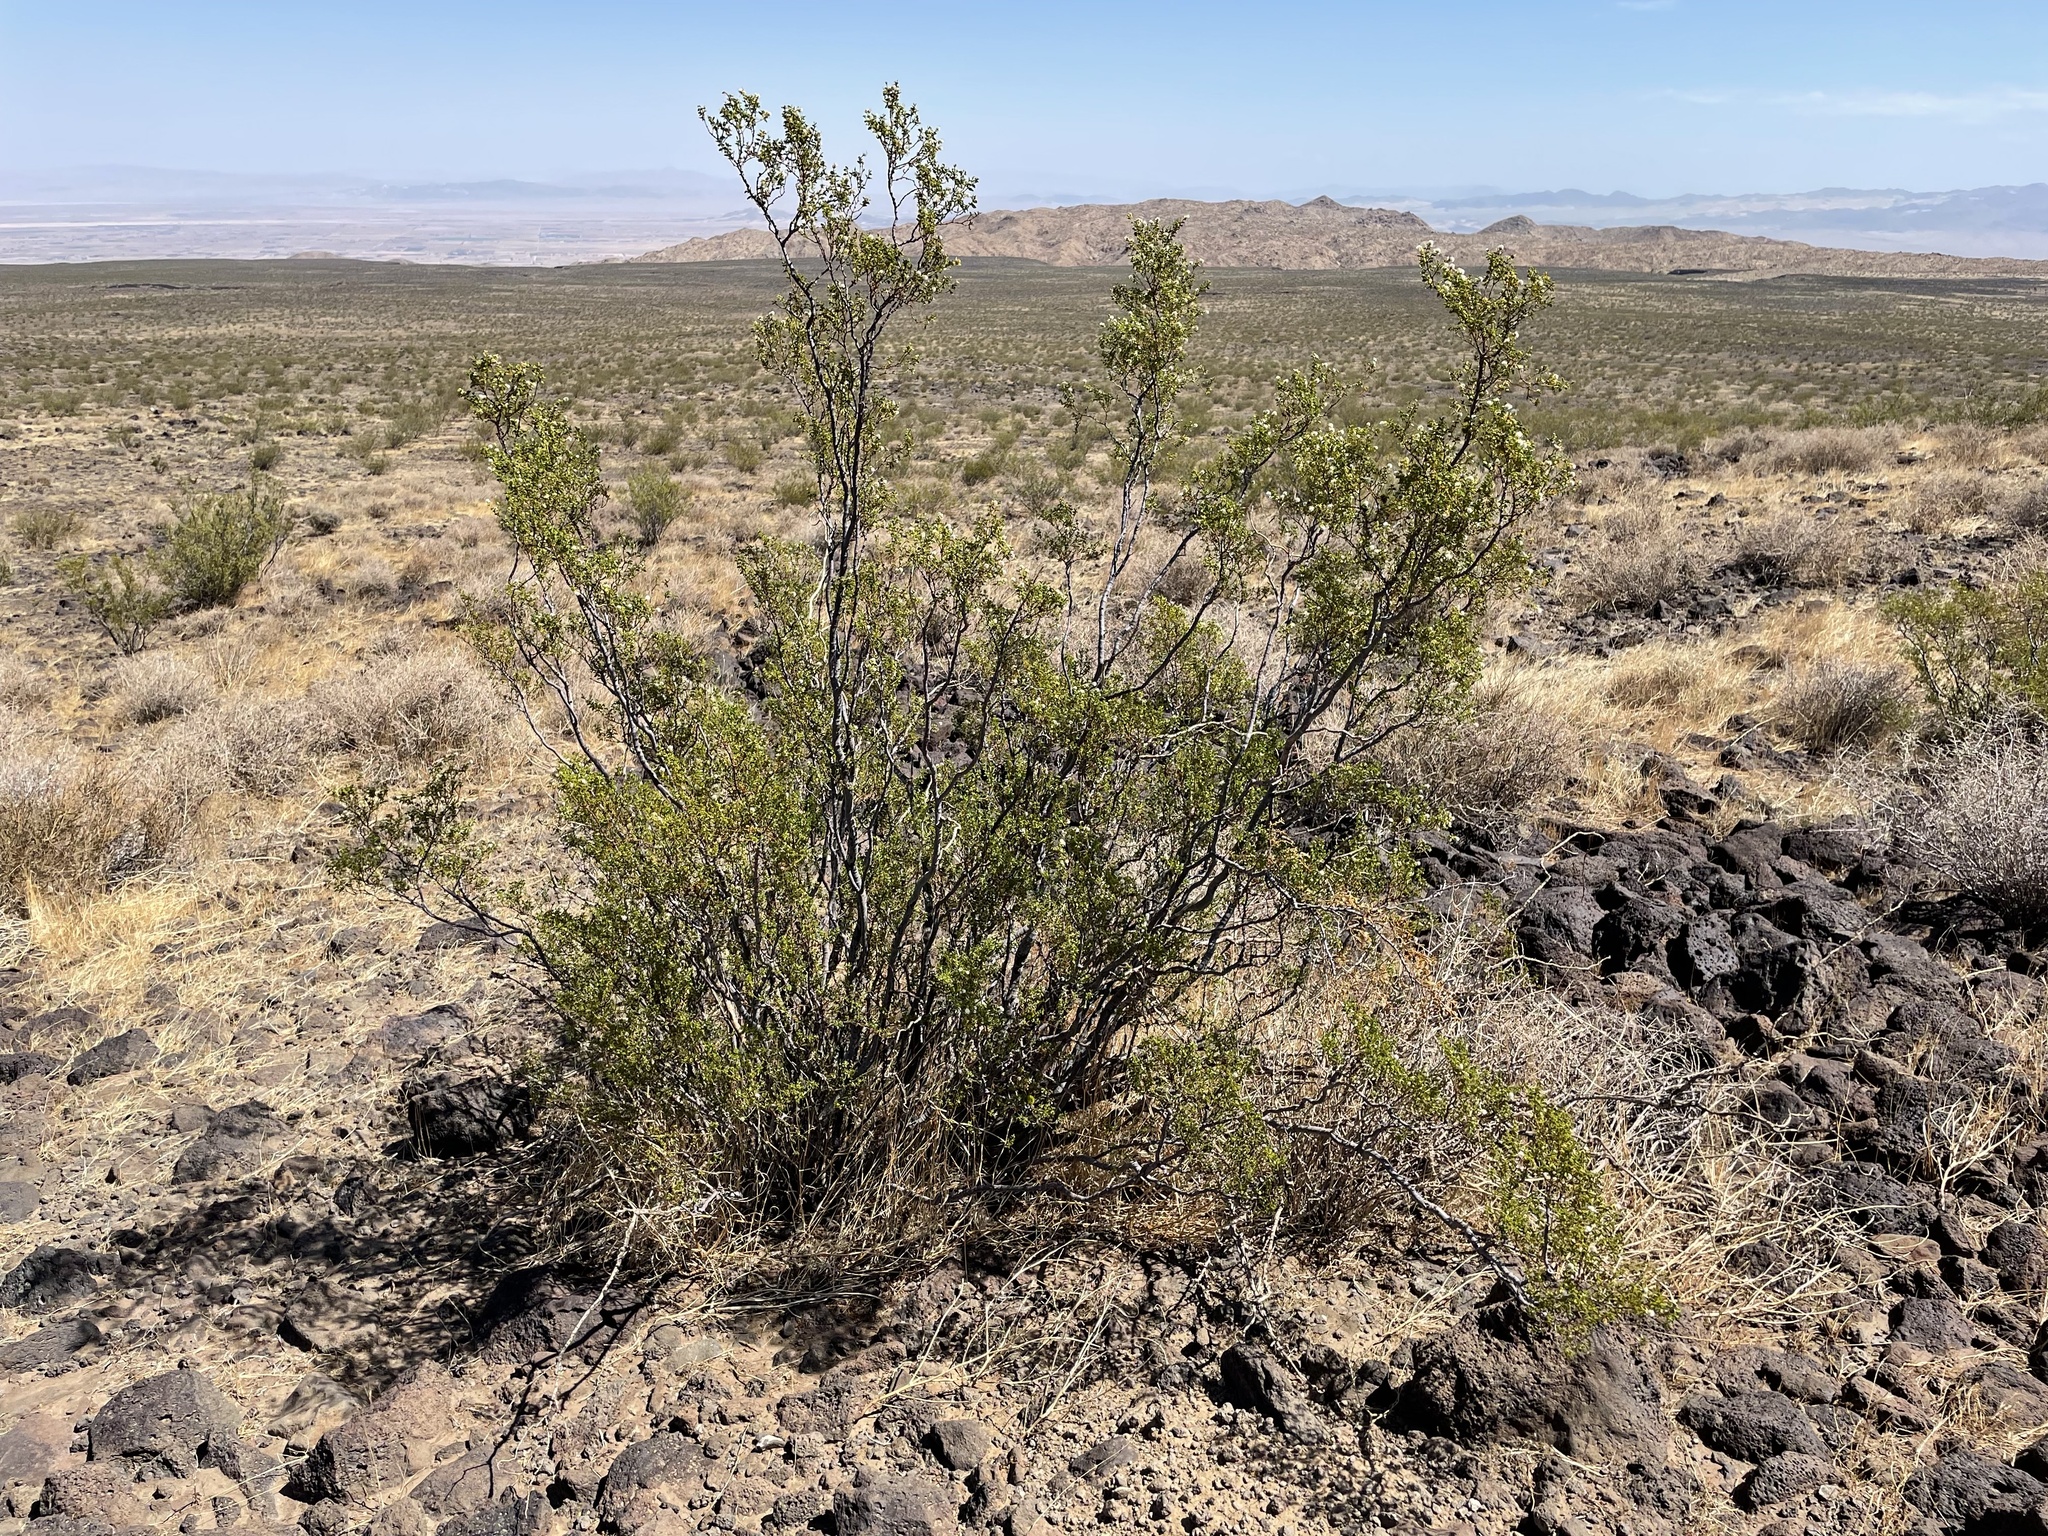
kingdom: Plantae
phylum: Tracheophyta
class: Magnoliopsida
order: Zygophyllales
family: Zygophyllaceae
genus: Larrea
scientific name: Larrea tridentata
